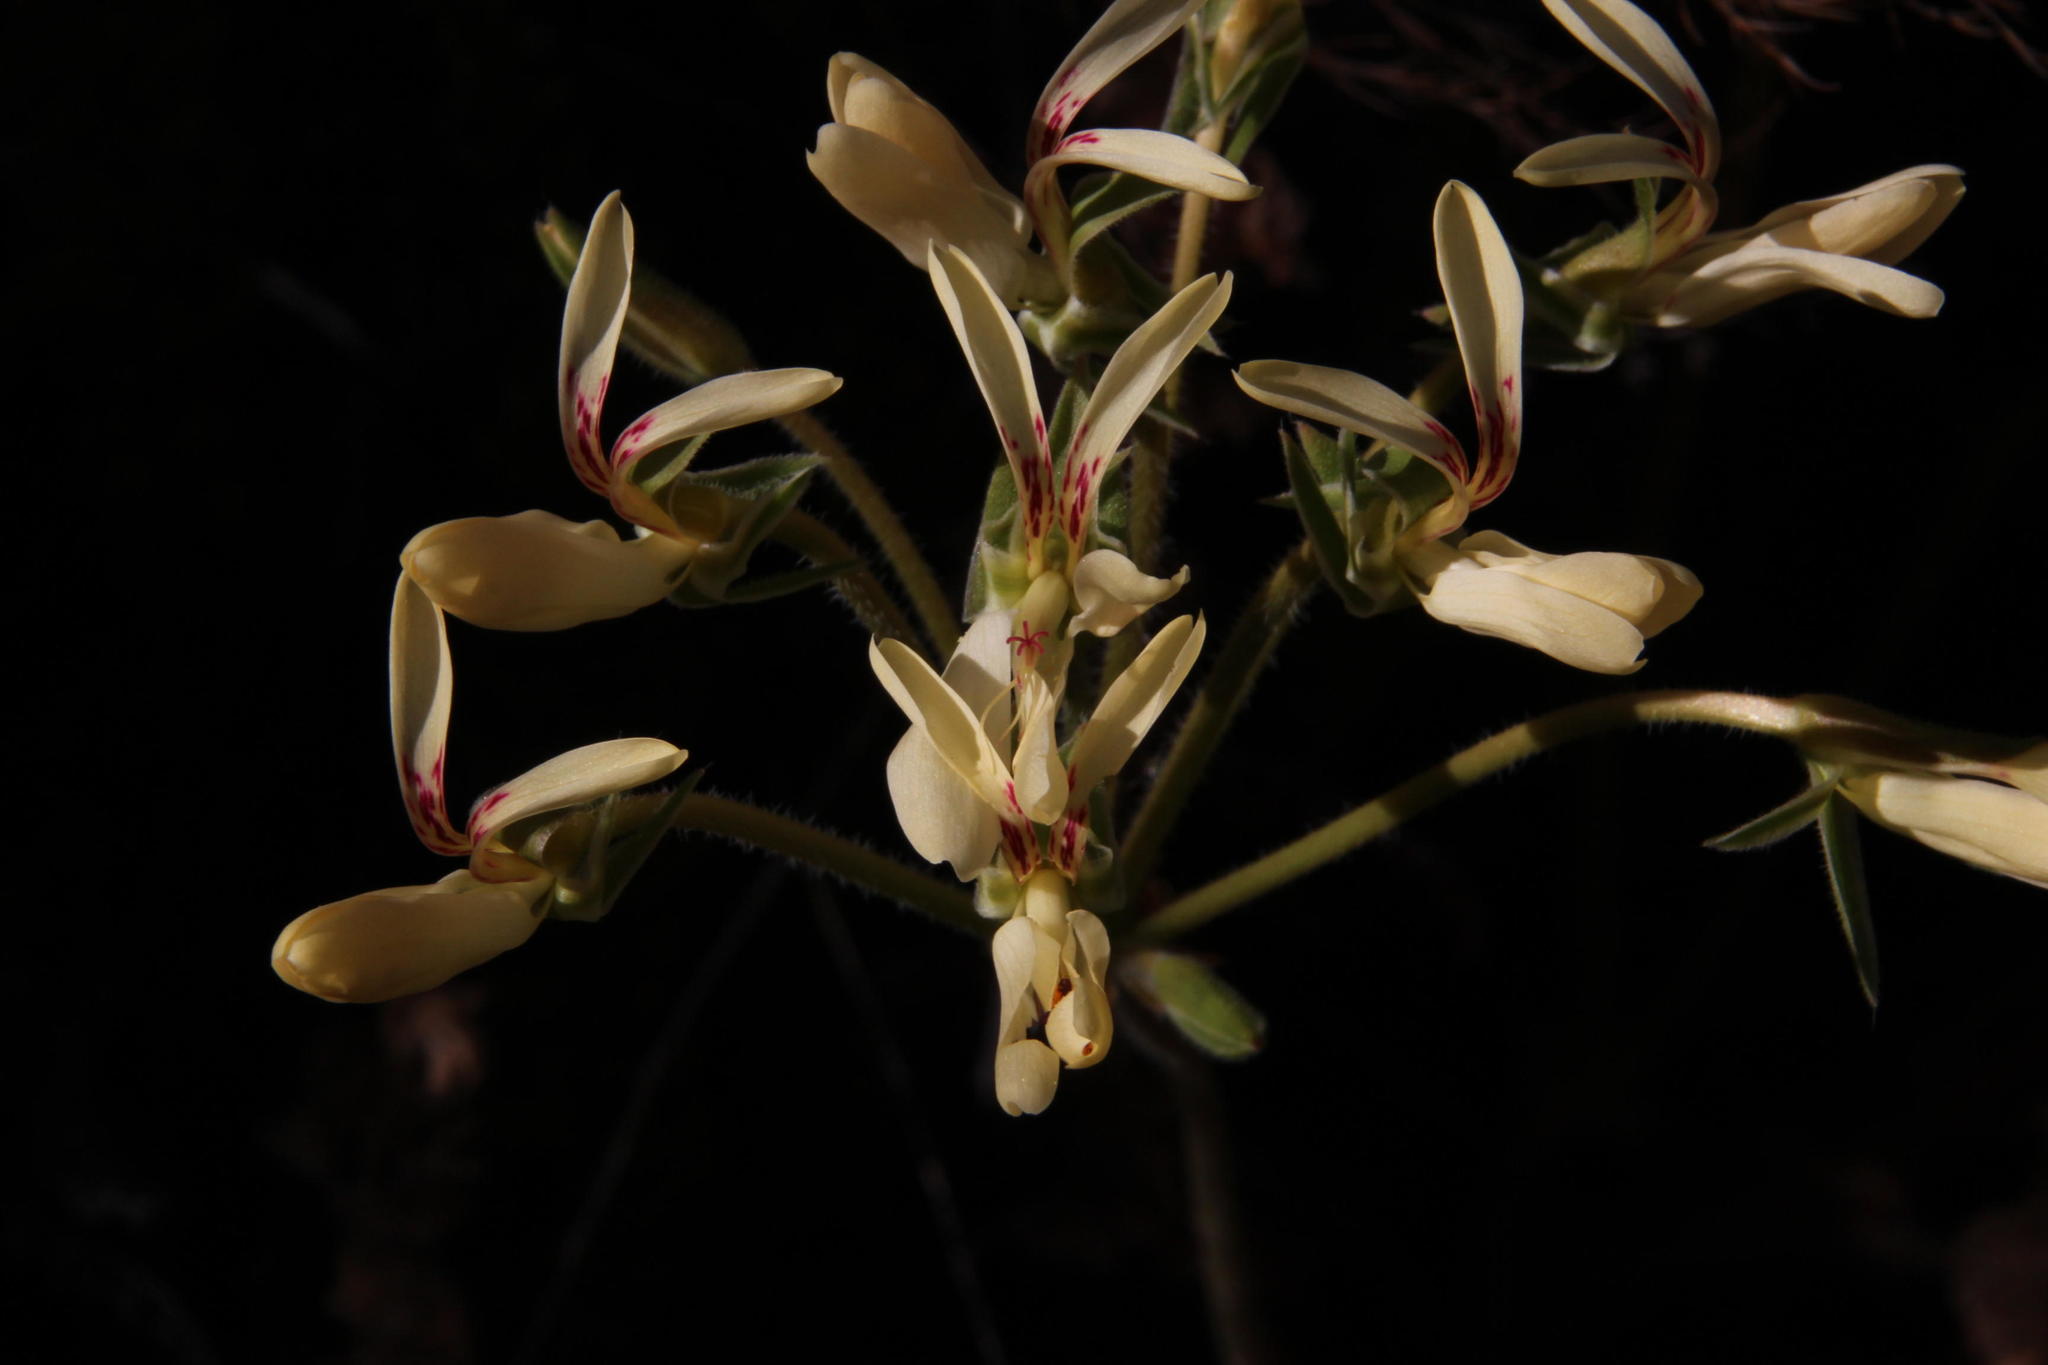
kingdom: Plantae
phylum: Tracheophyta
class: Magnoliopsida
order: Geraniales
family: Geraniaceae
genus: Pelargonium
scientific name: Pelargonium rapaceum
